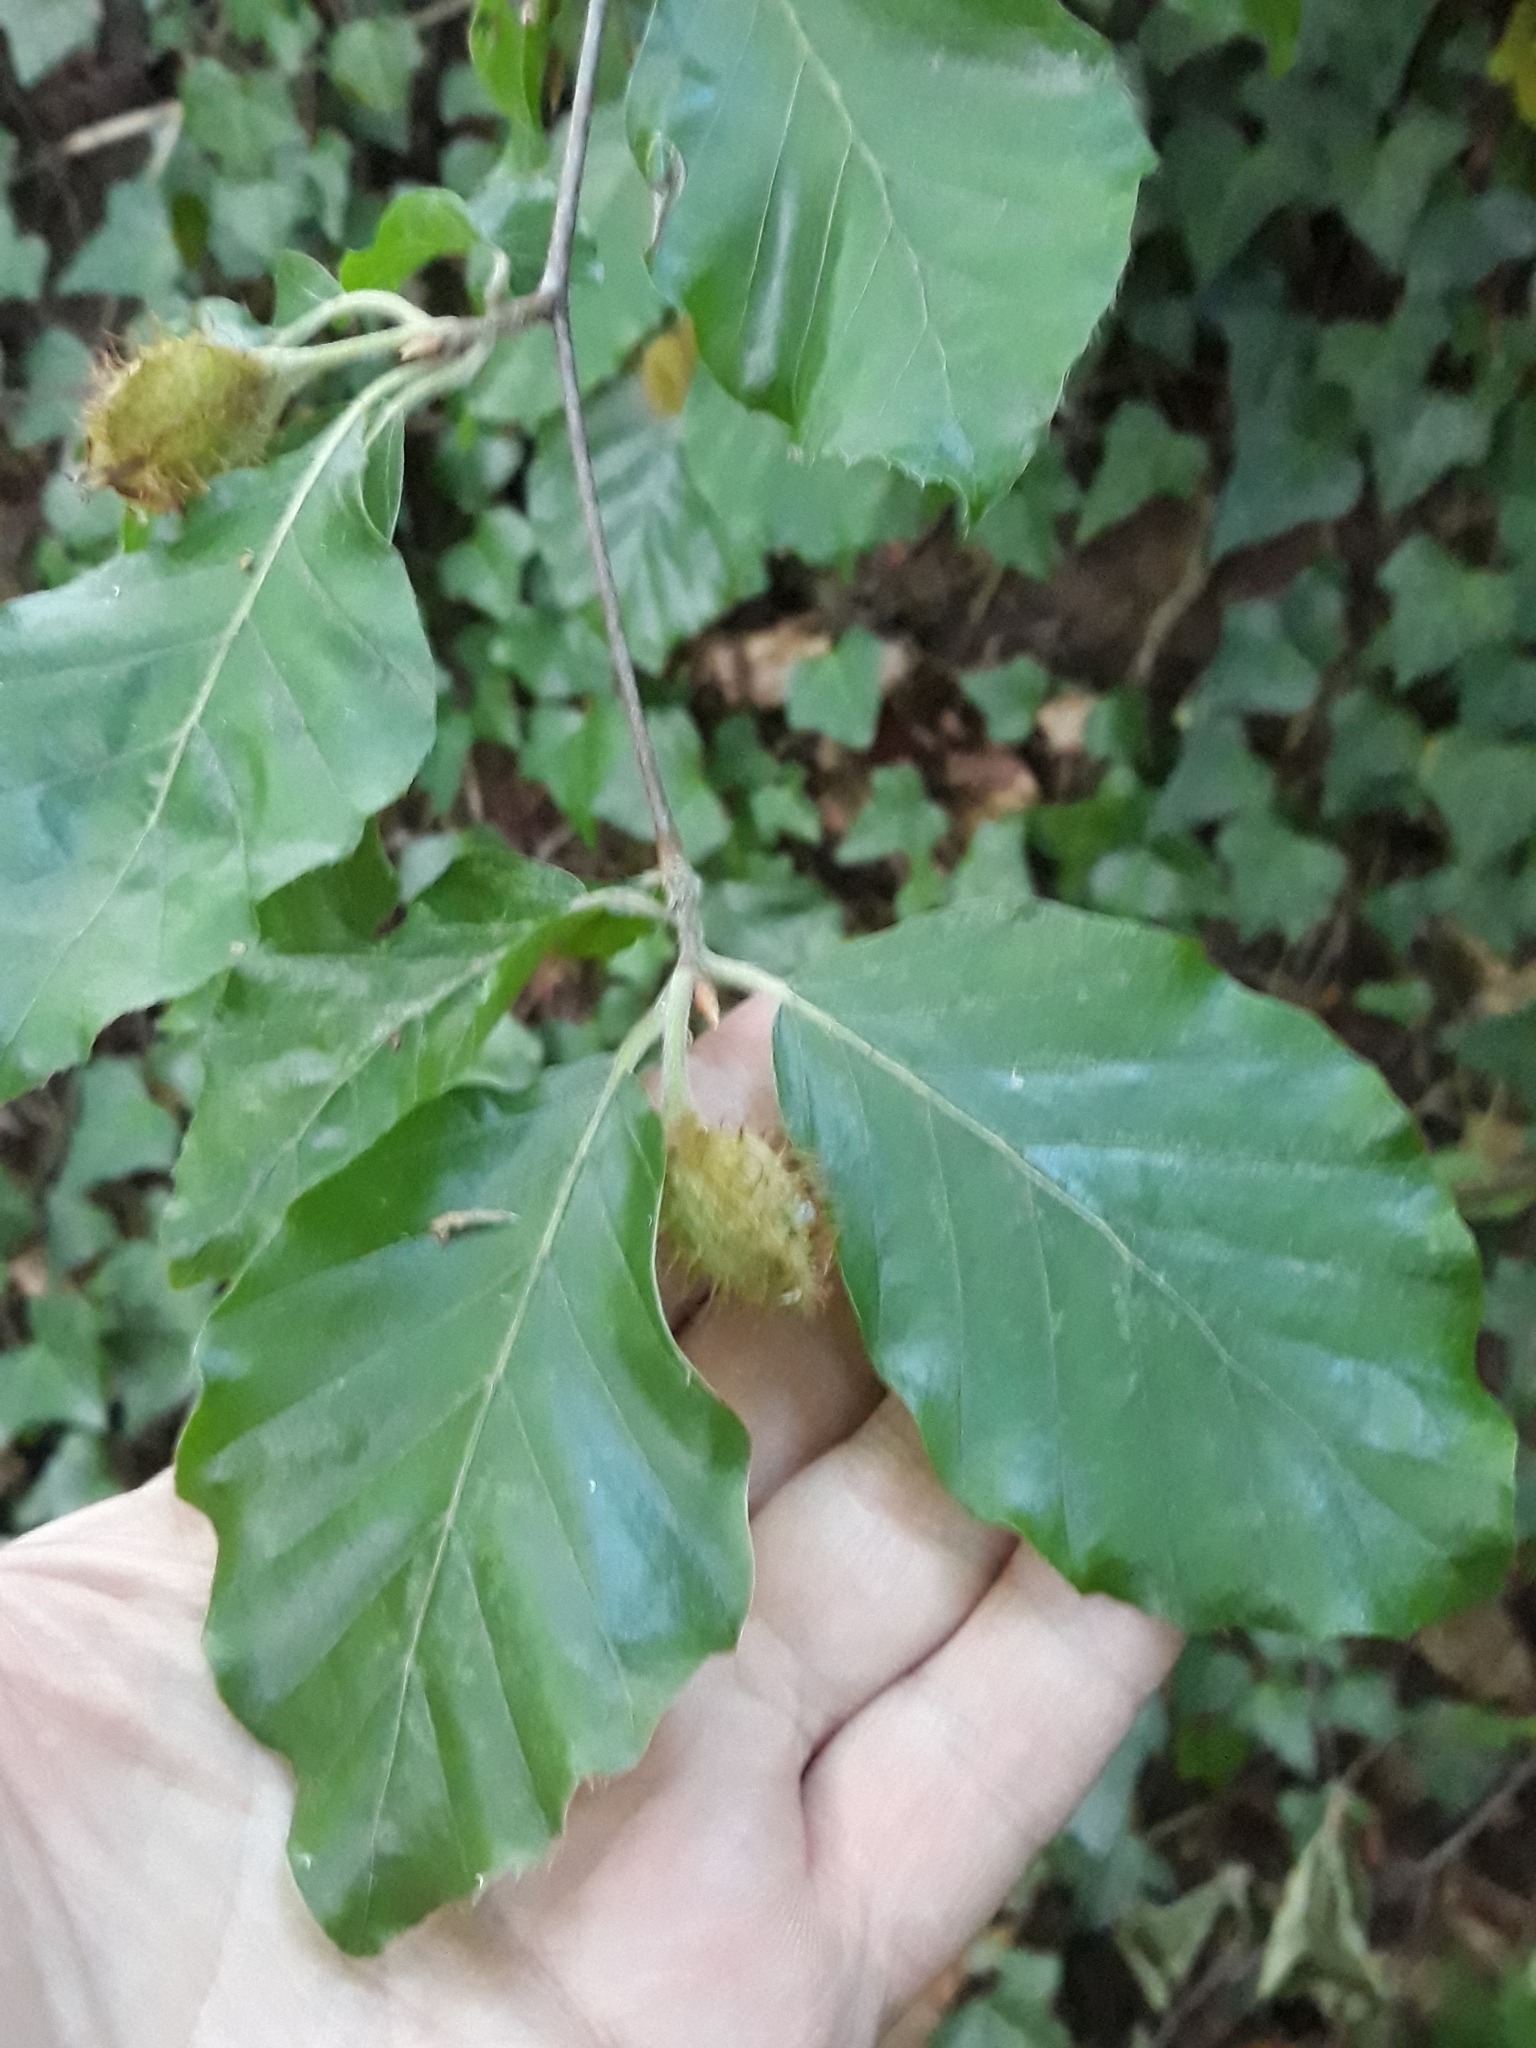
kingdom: Plantae
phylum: Tracheophyta
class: Magnoliopsida
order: Fagales
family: Fagaceae
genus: Fagus
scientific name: Fagus sylvatica
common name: Beech
